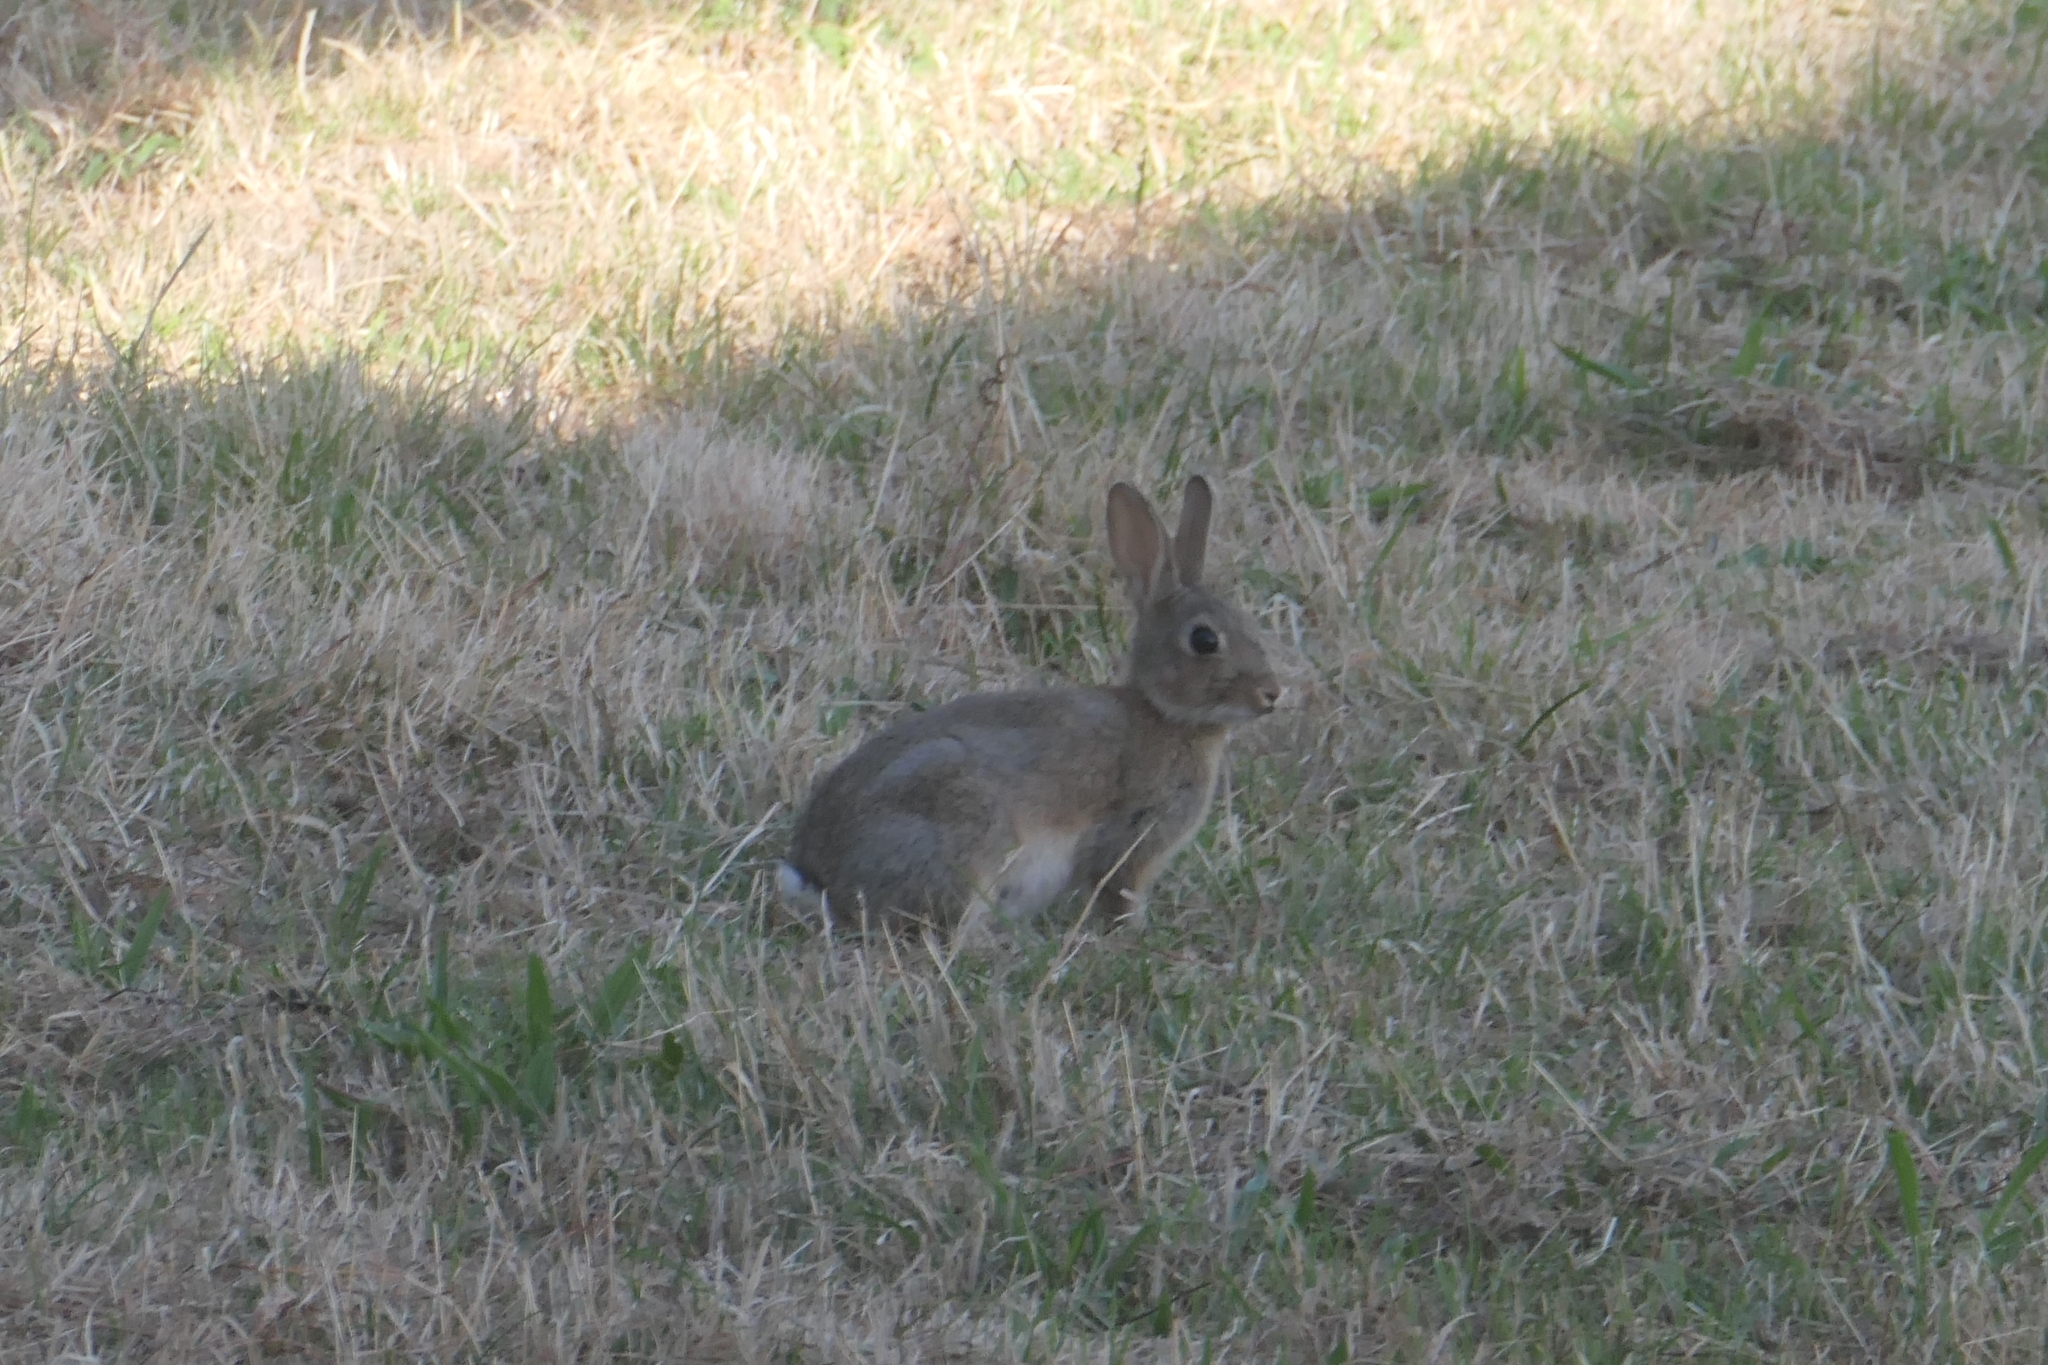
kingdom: Animalia
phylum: Chordata
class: Mammalia
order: Lagomorpha
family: Leporidae
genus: Oryctolagus
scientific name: Oryctolagus cuniculus
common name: European rabbit
